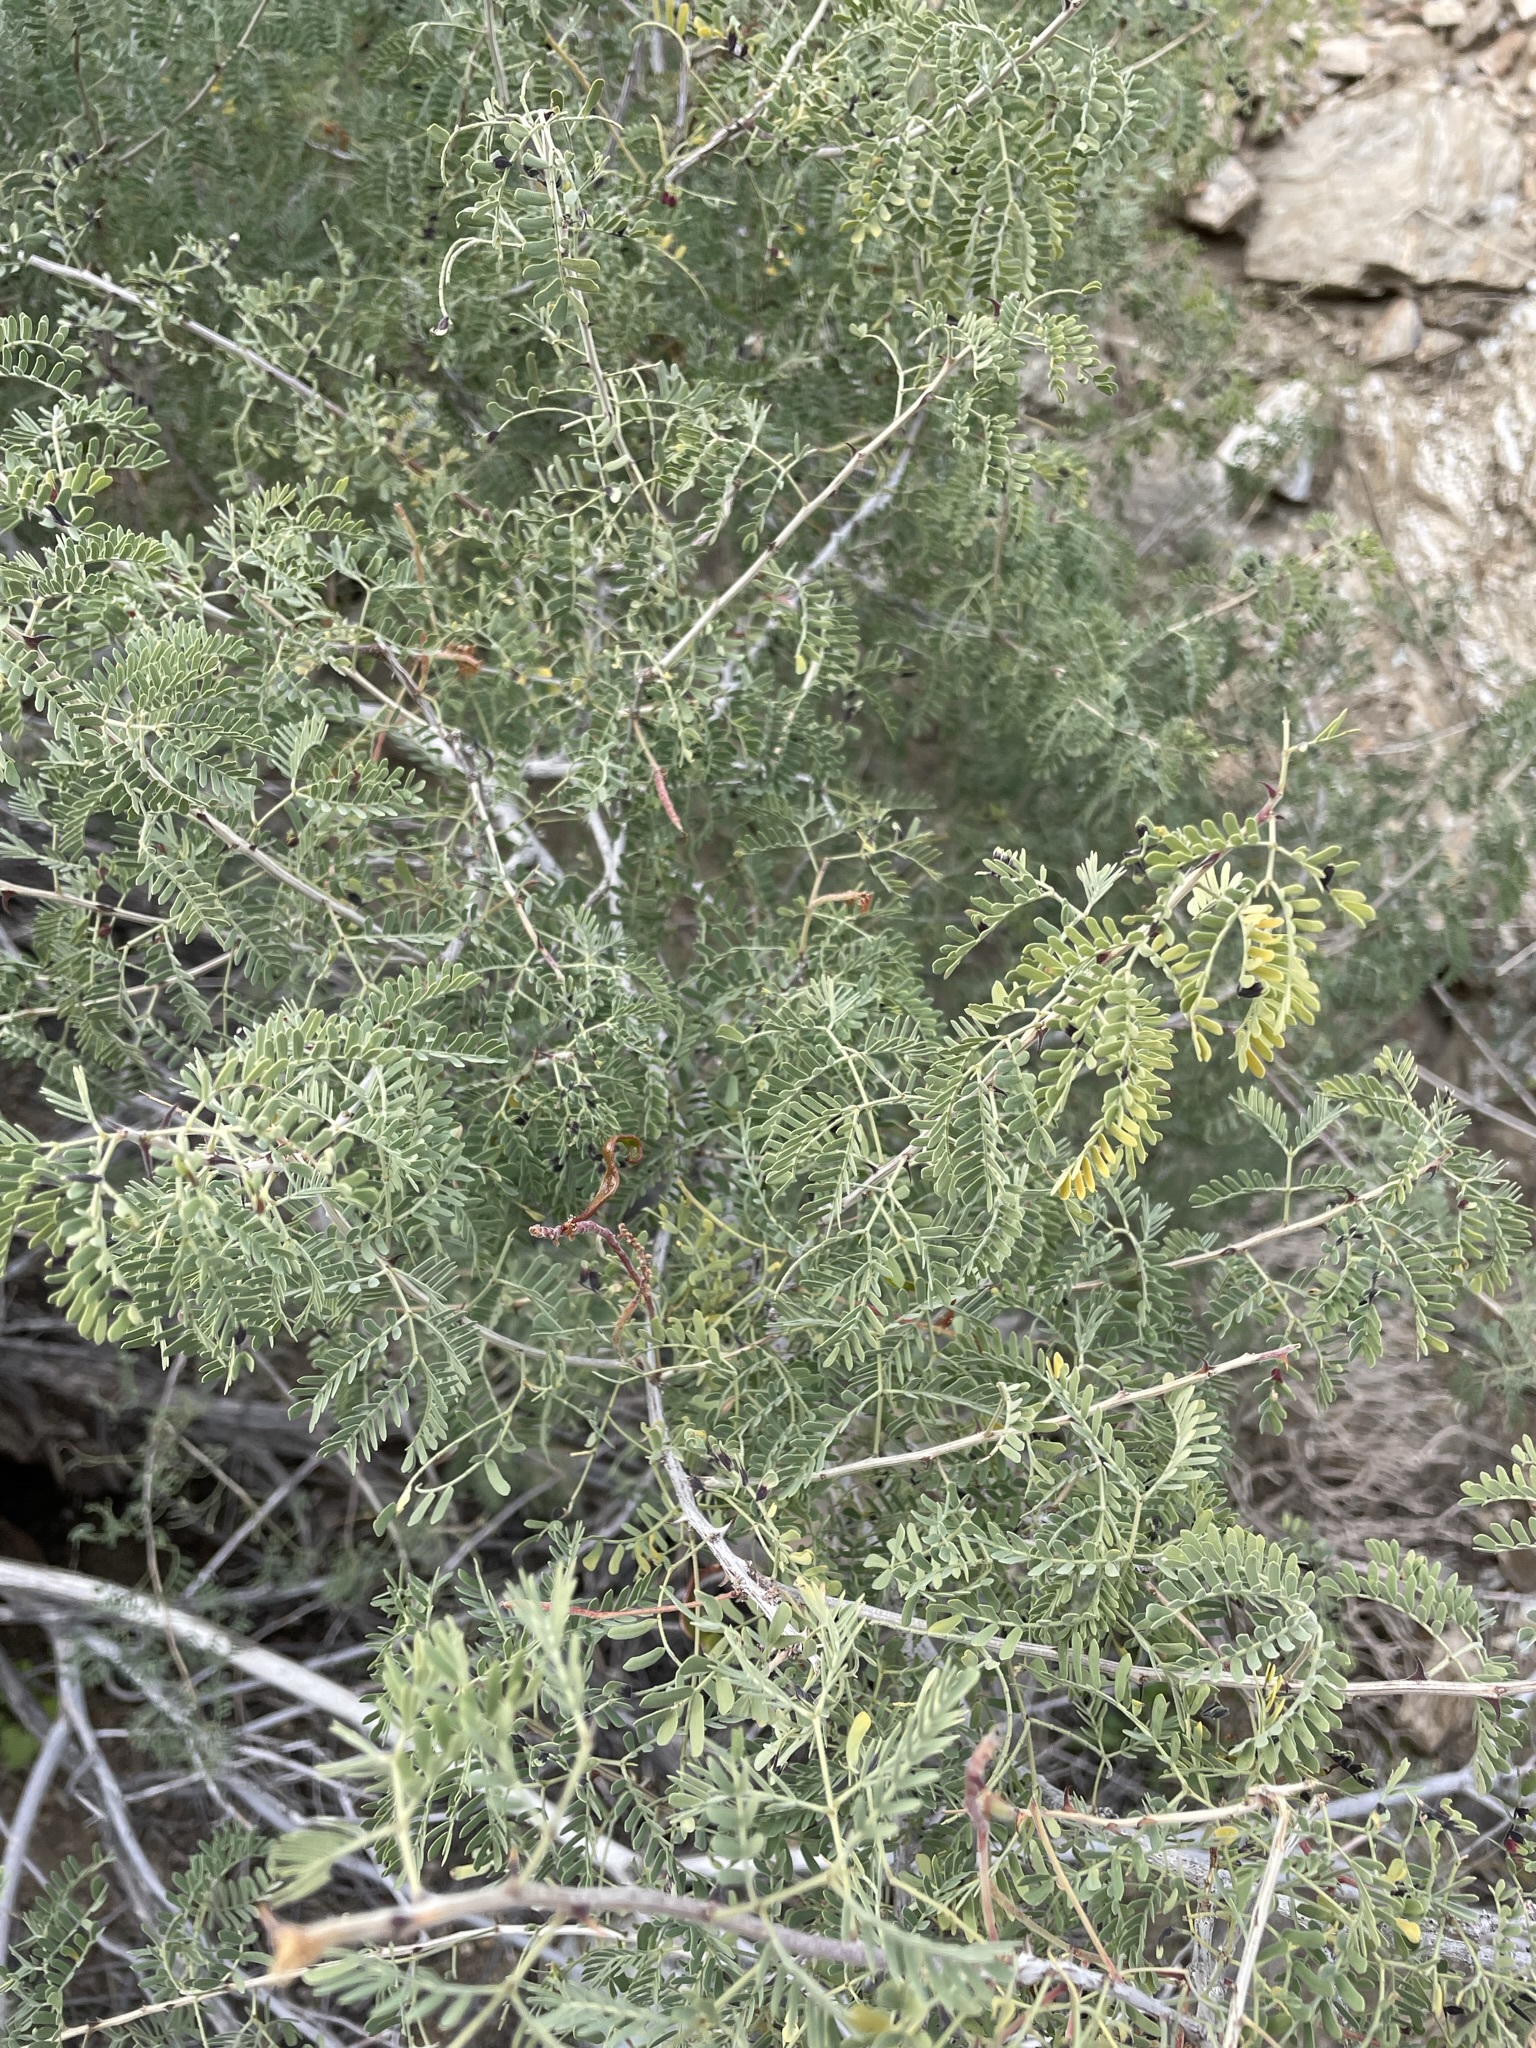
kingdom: Plantae
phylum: Tracheophyta
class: Magnoliopsida
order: Fabales
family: Fabaceae
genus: Senegalia
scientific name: Senegalia greggii
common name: Texas-mimosa
